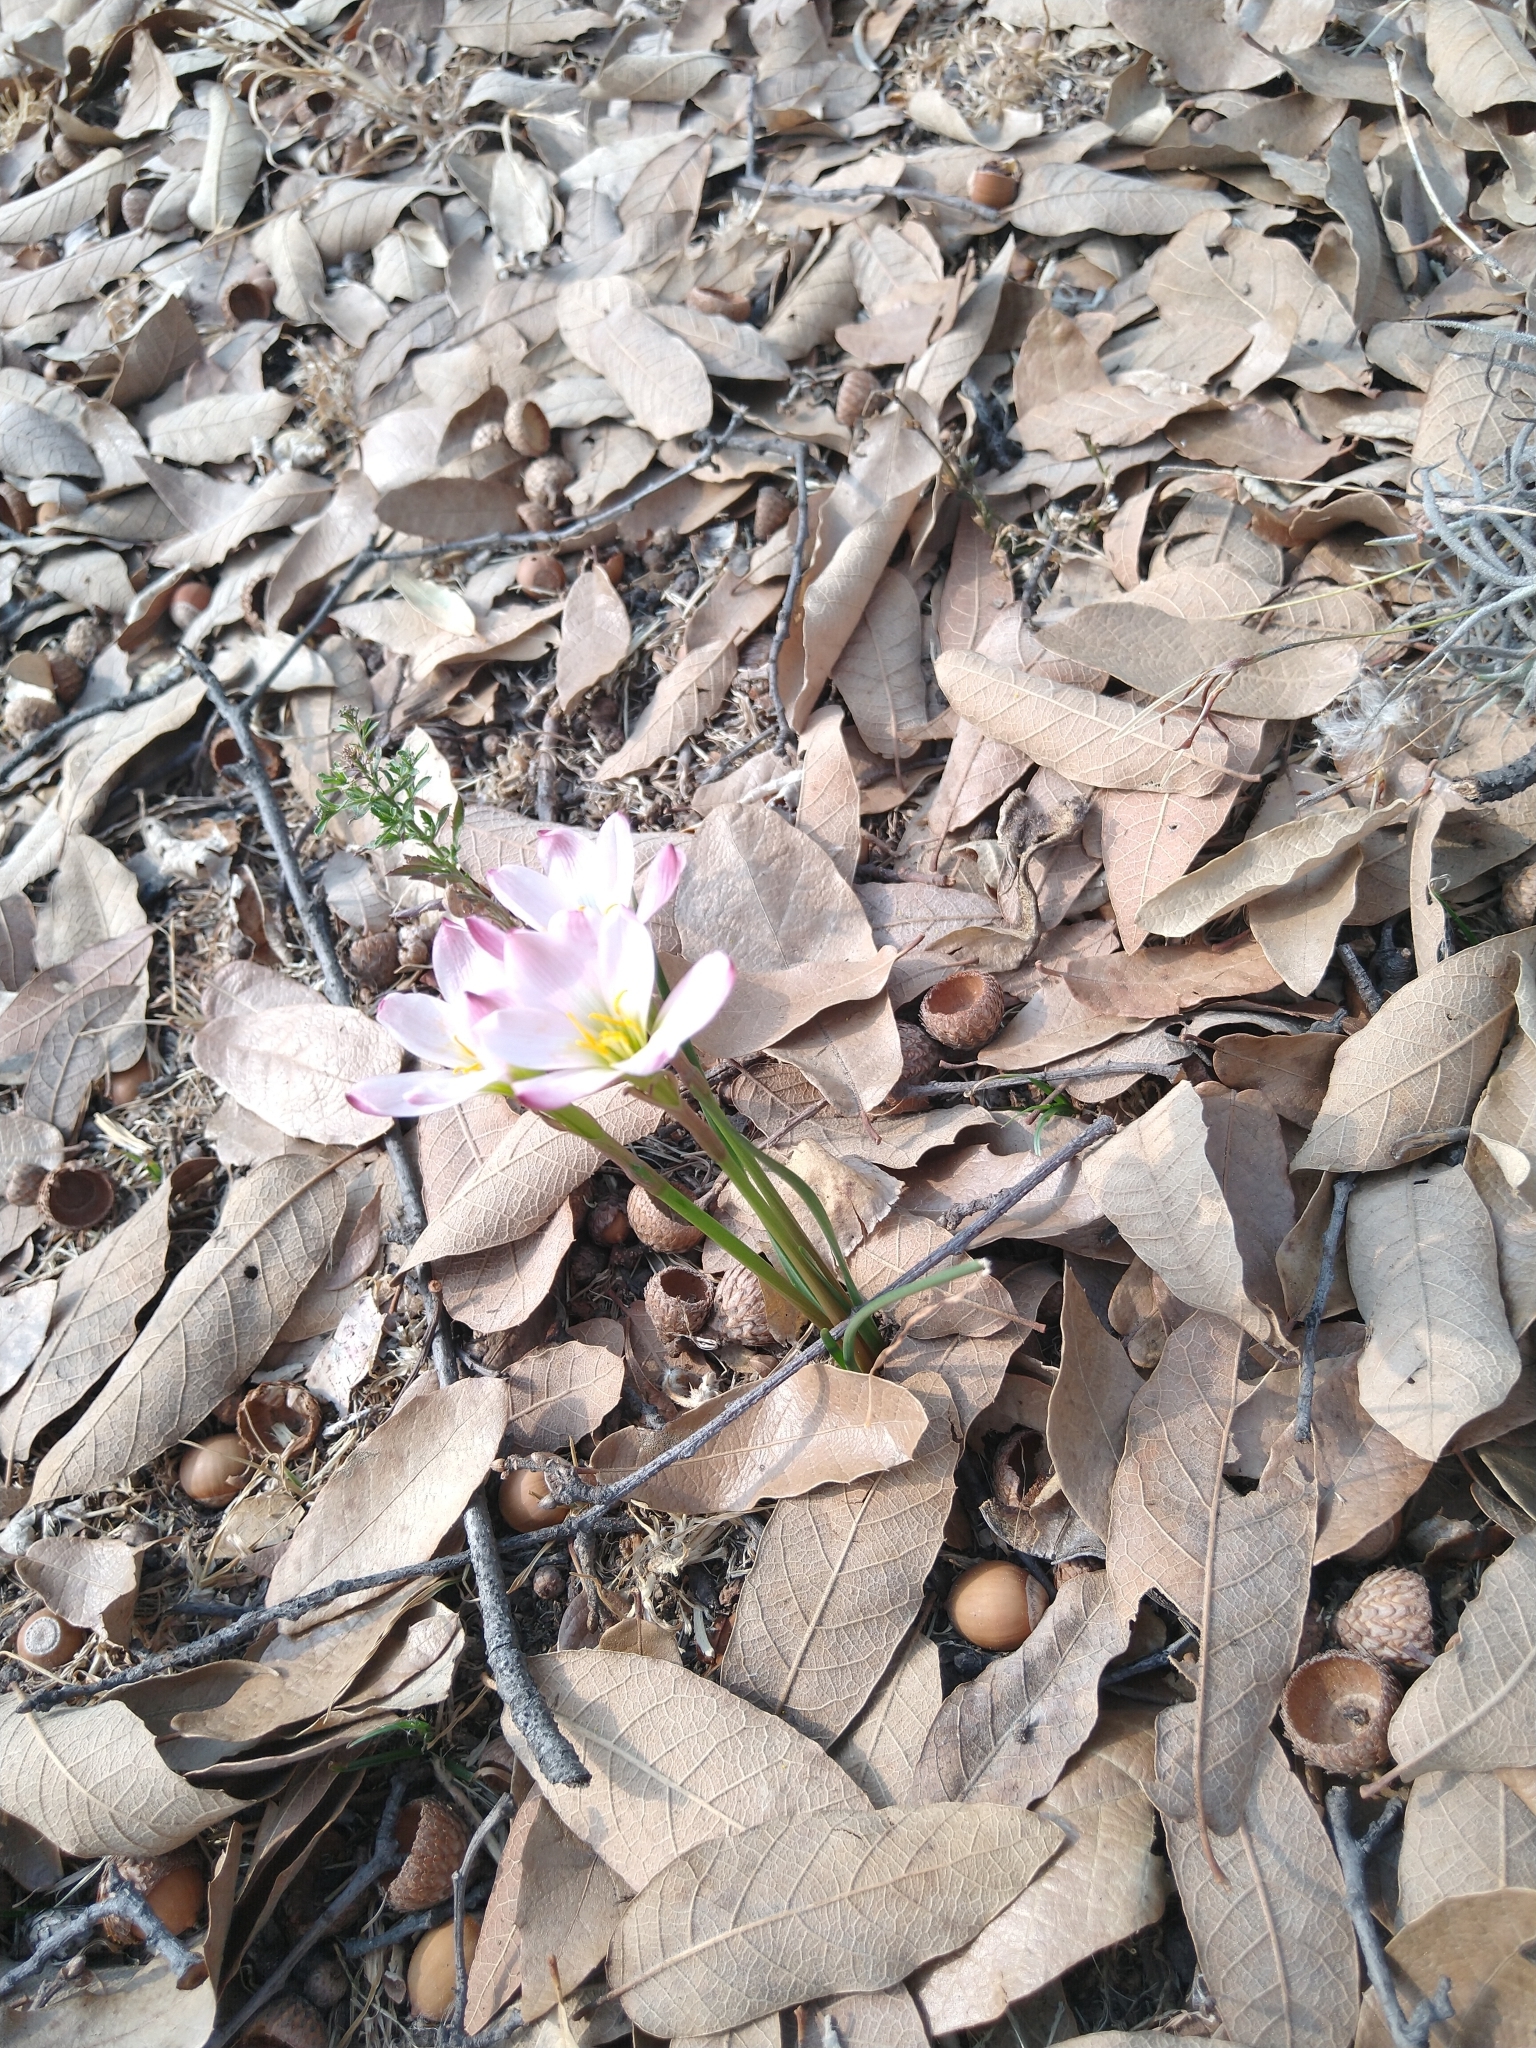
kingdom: Plantae
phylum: Tracheophyta
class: Liliopsida
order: Asparagales
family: Amaryllidaceae
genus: Zephyranthes
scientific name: Zephyranthes fosteri
